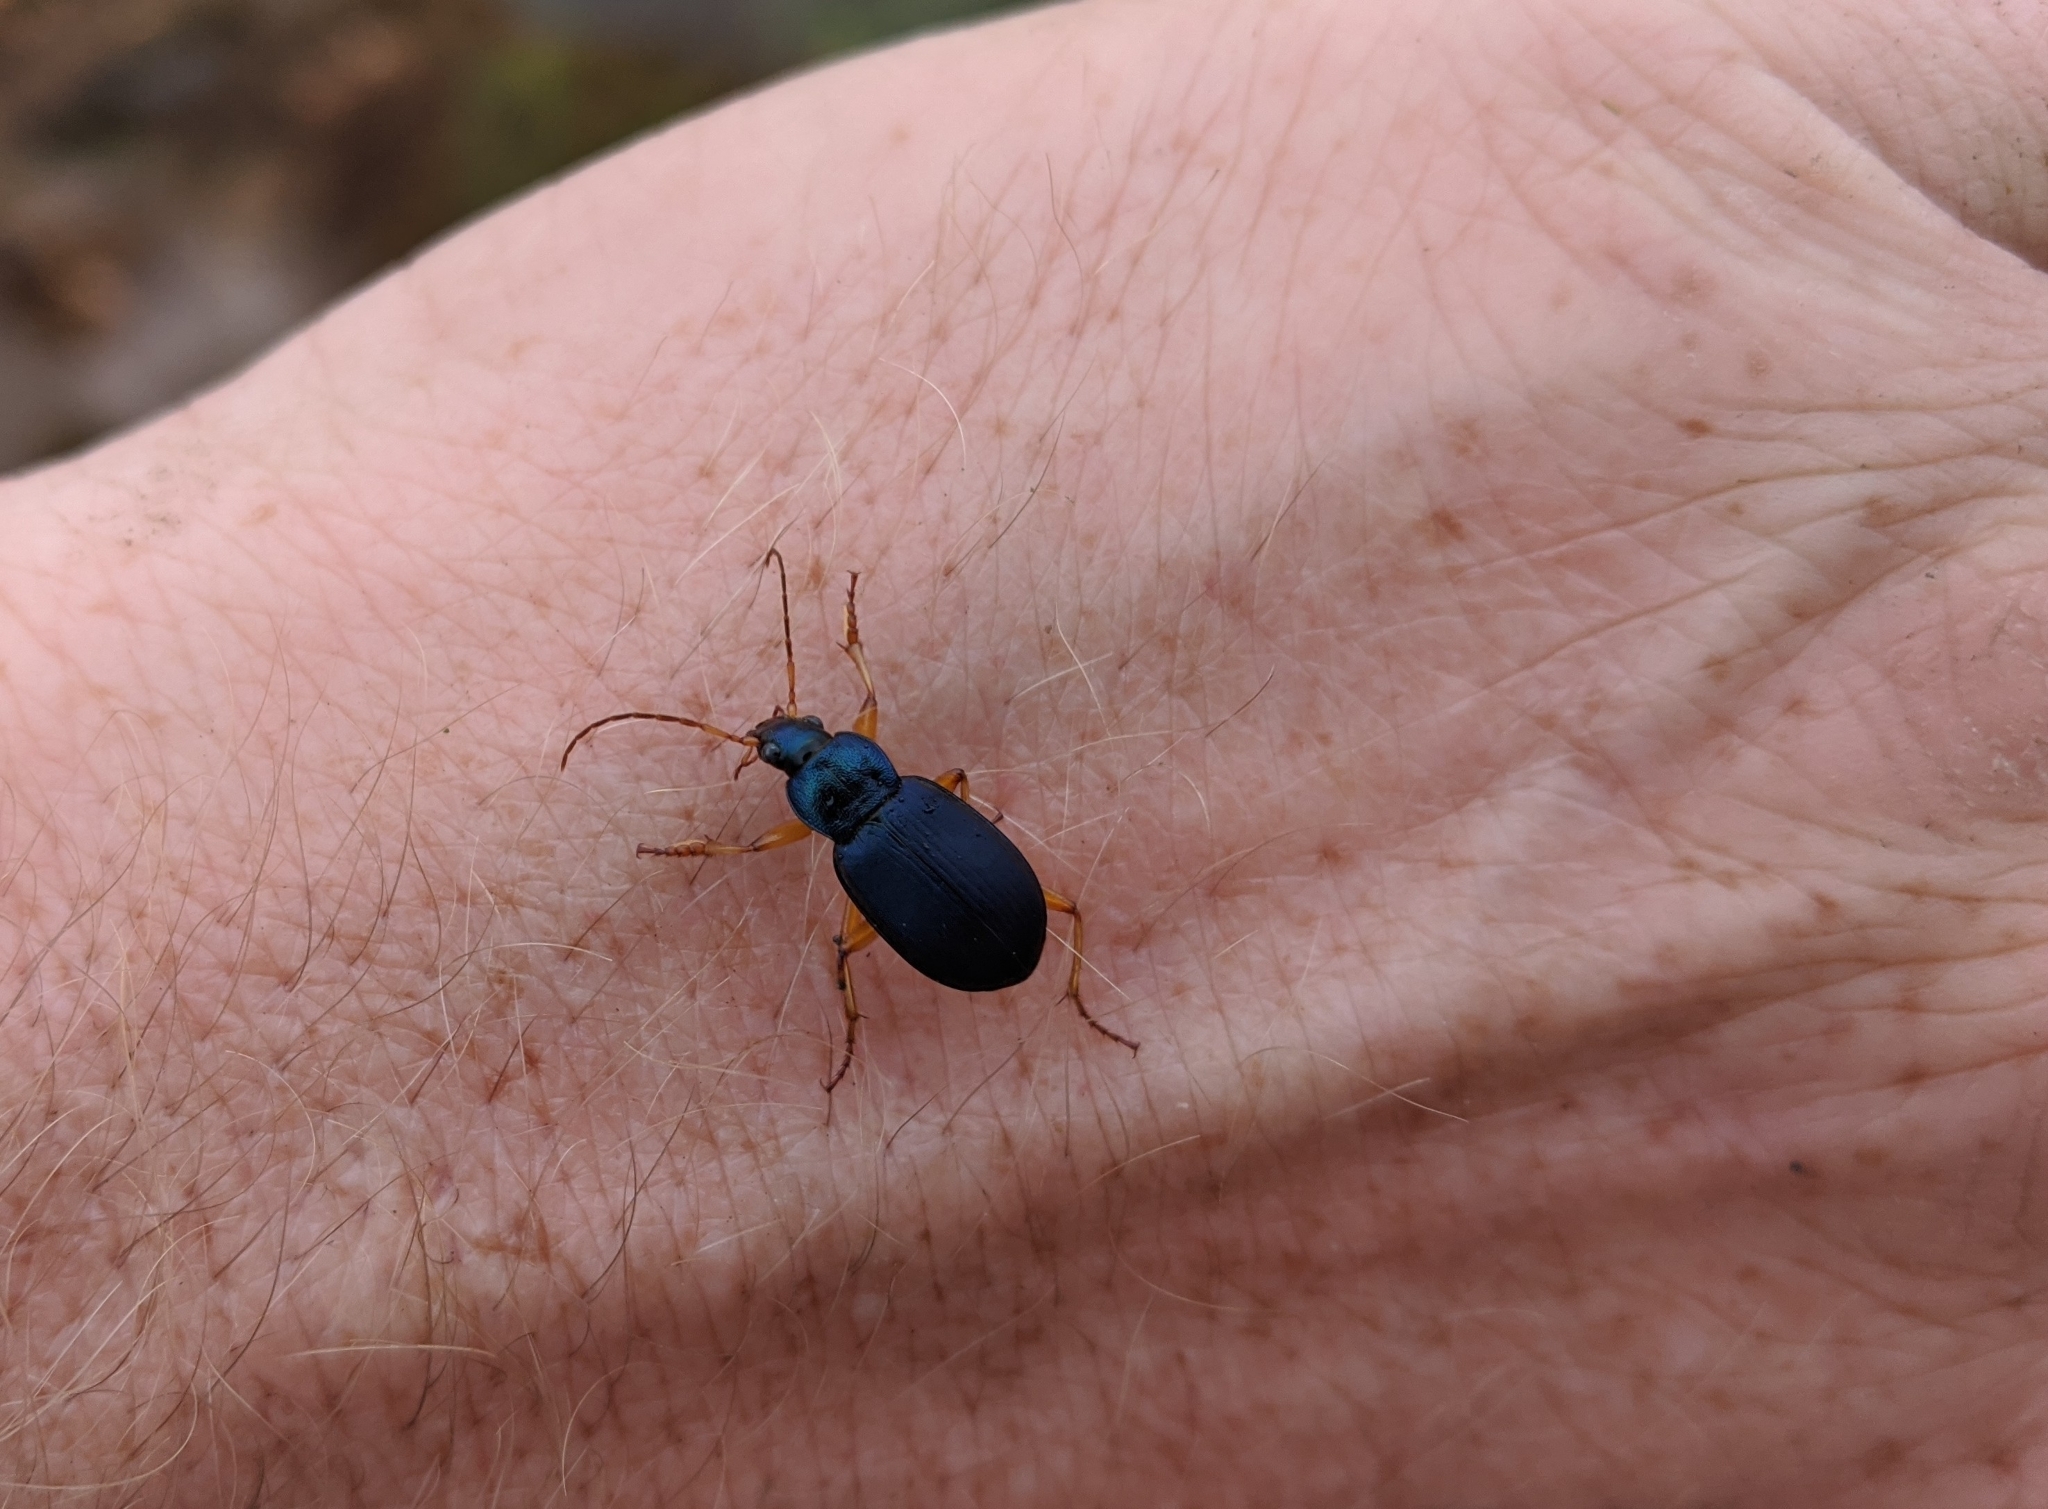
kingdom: Animalia
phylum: Arthropoda
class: Insecta
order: Coleoptera
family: Carabidae
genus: Chlaenius
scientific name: Chlaenius cumatilis
